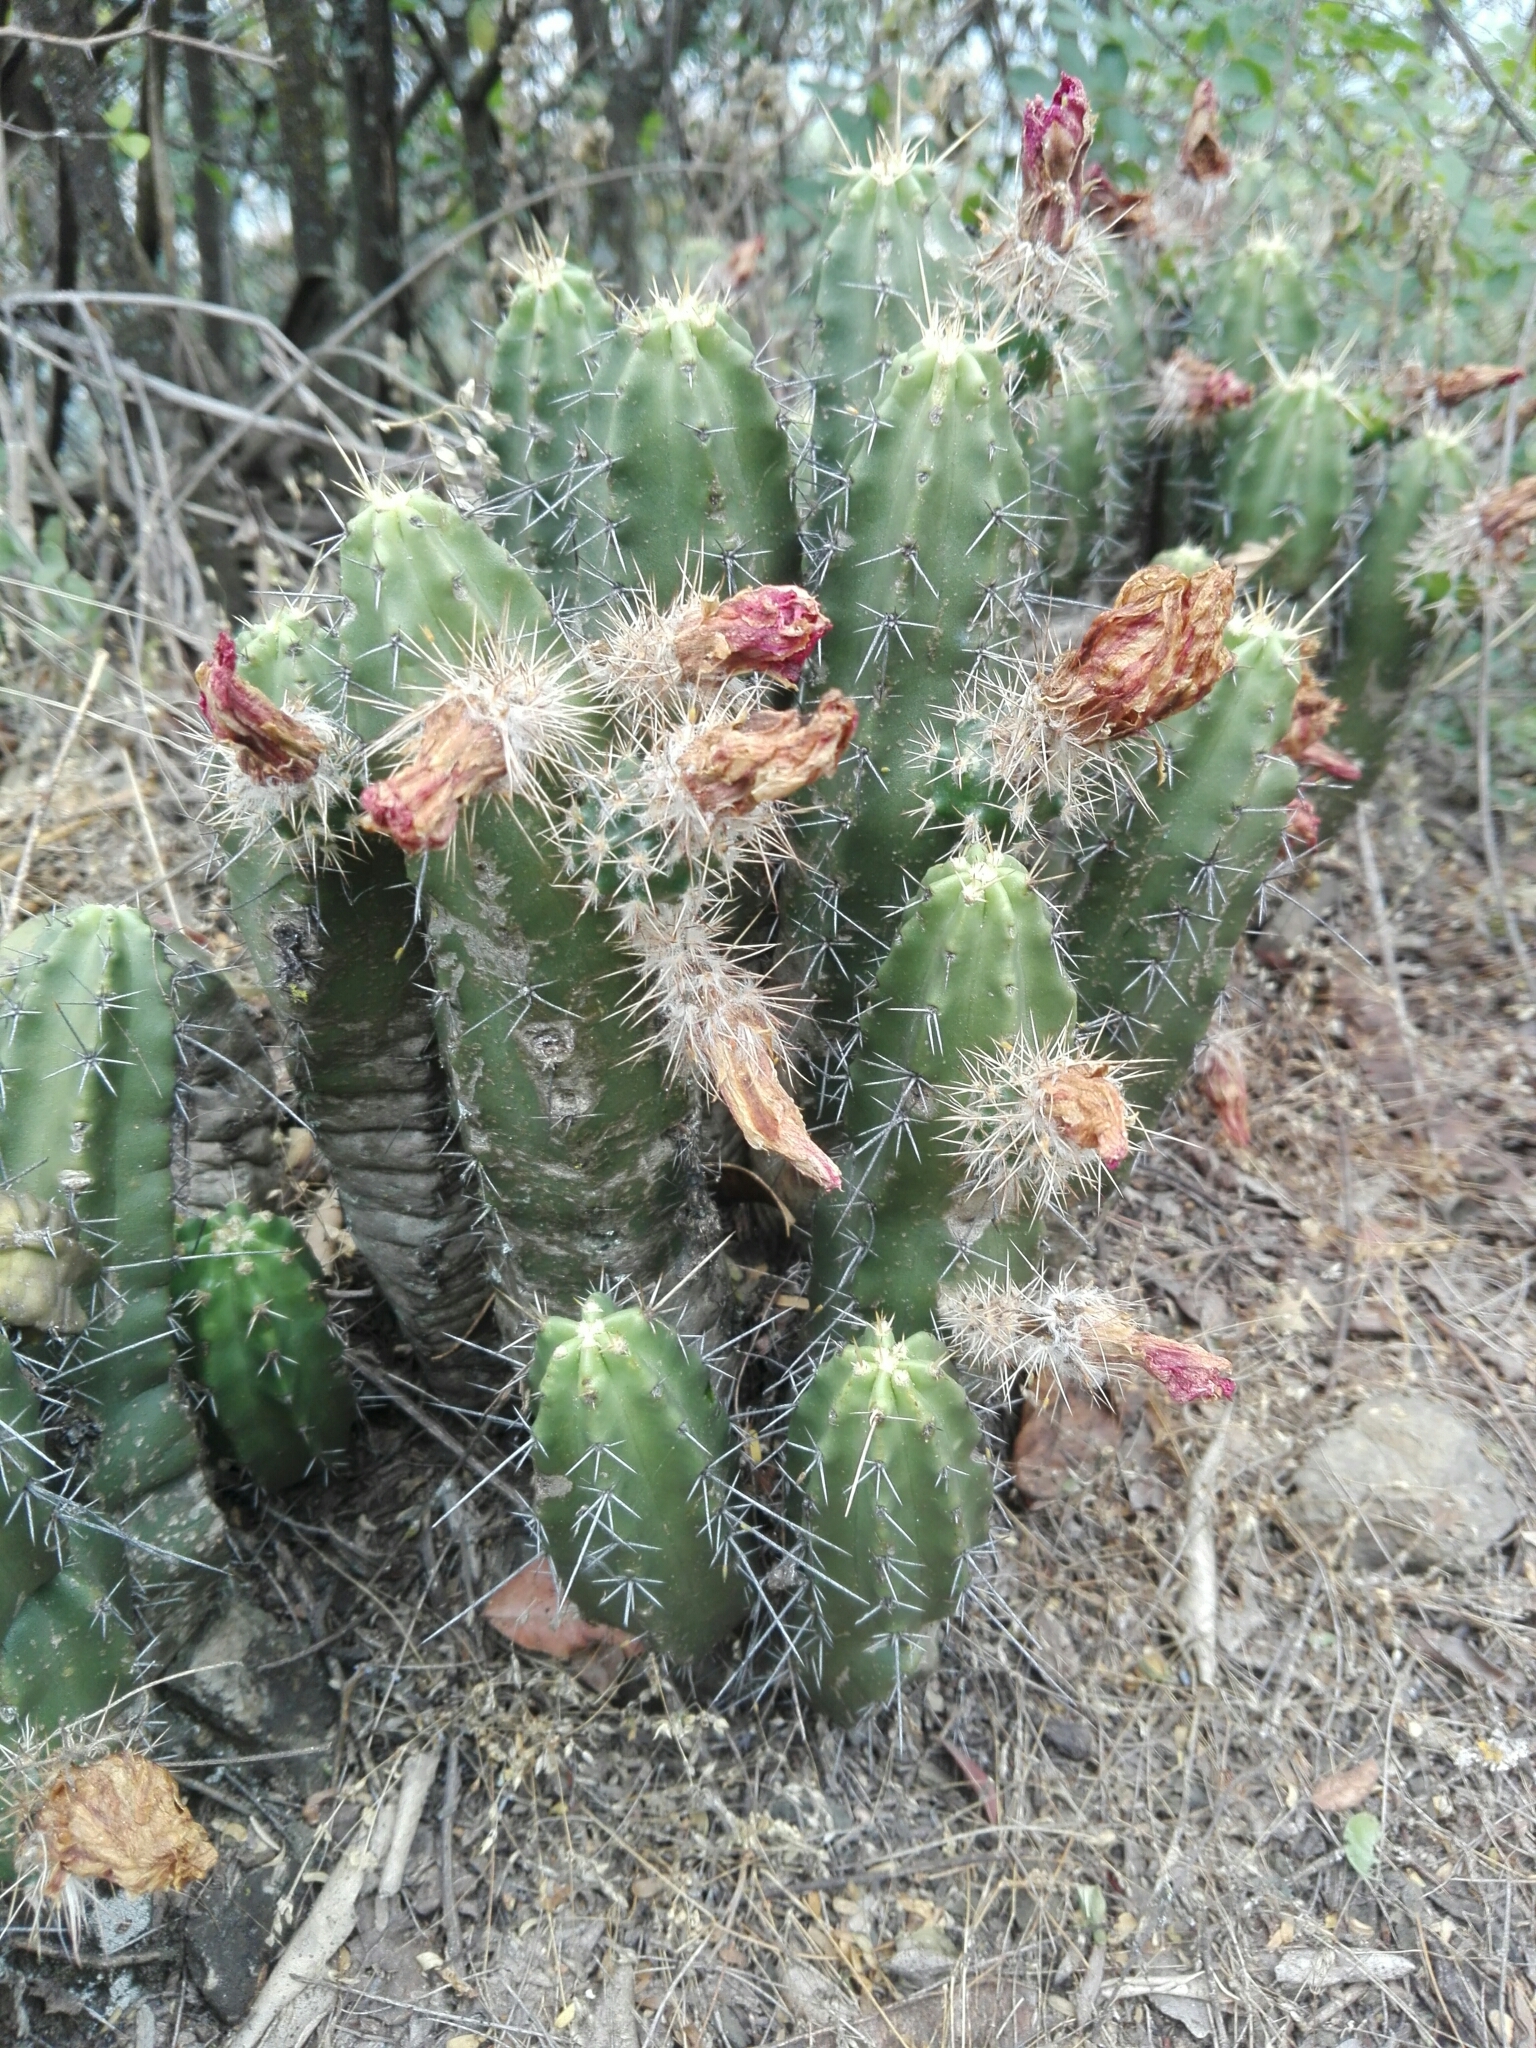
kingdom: Plantae
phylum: Tracheophyta
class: Magnoliopsida
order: Caryophyllales
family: Cactaceae
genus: Echinocereus
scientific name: Echinocereus pentalophus
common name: Ladyfinger cactus
